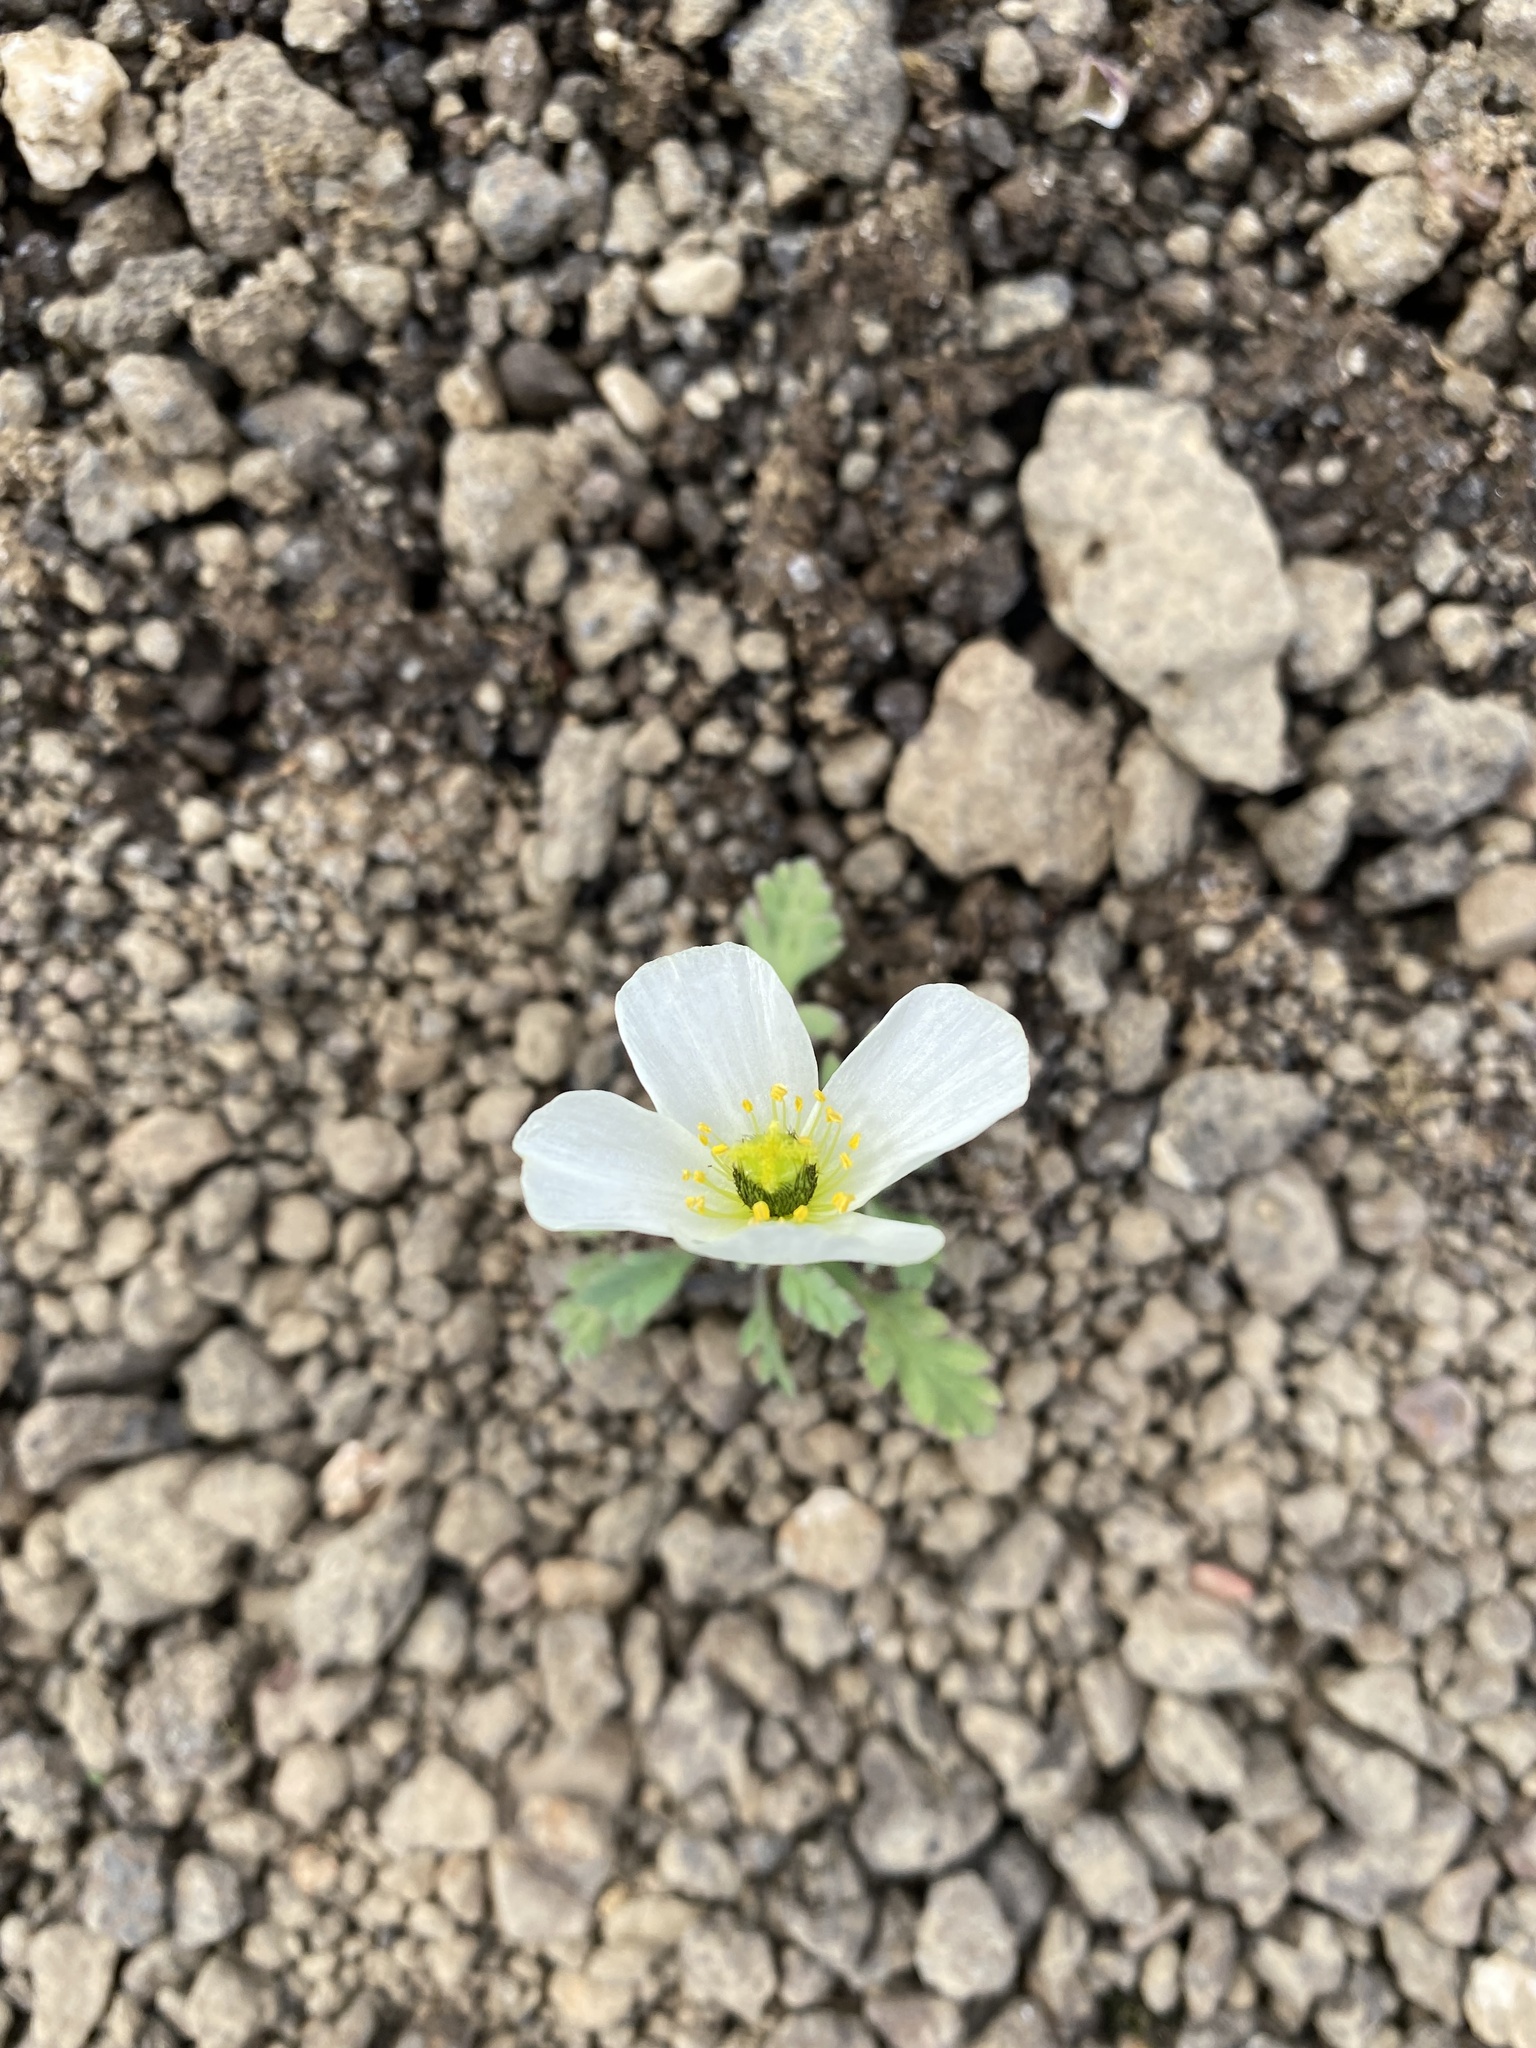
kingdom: Plantae
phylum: Tracheophyta
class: Magnoliopsida
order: Ranunculales
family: Papaveraceae
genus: Papaver
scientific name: Papaver pulvinatum
